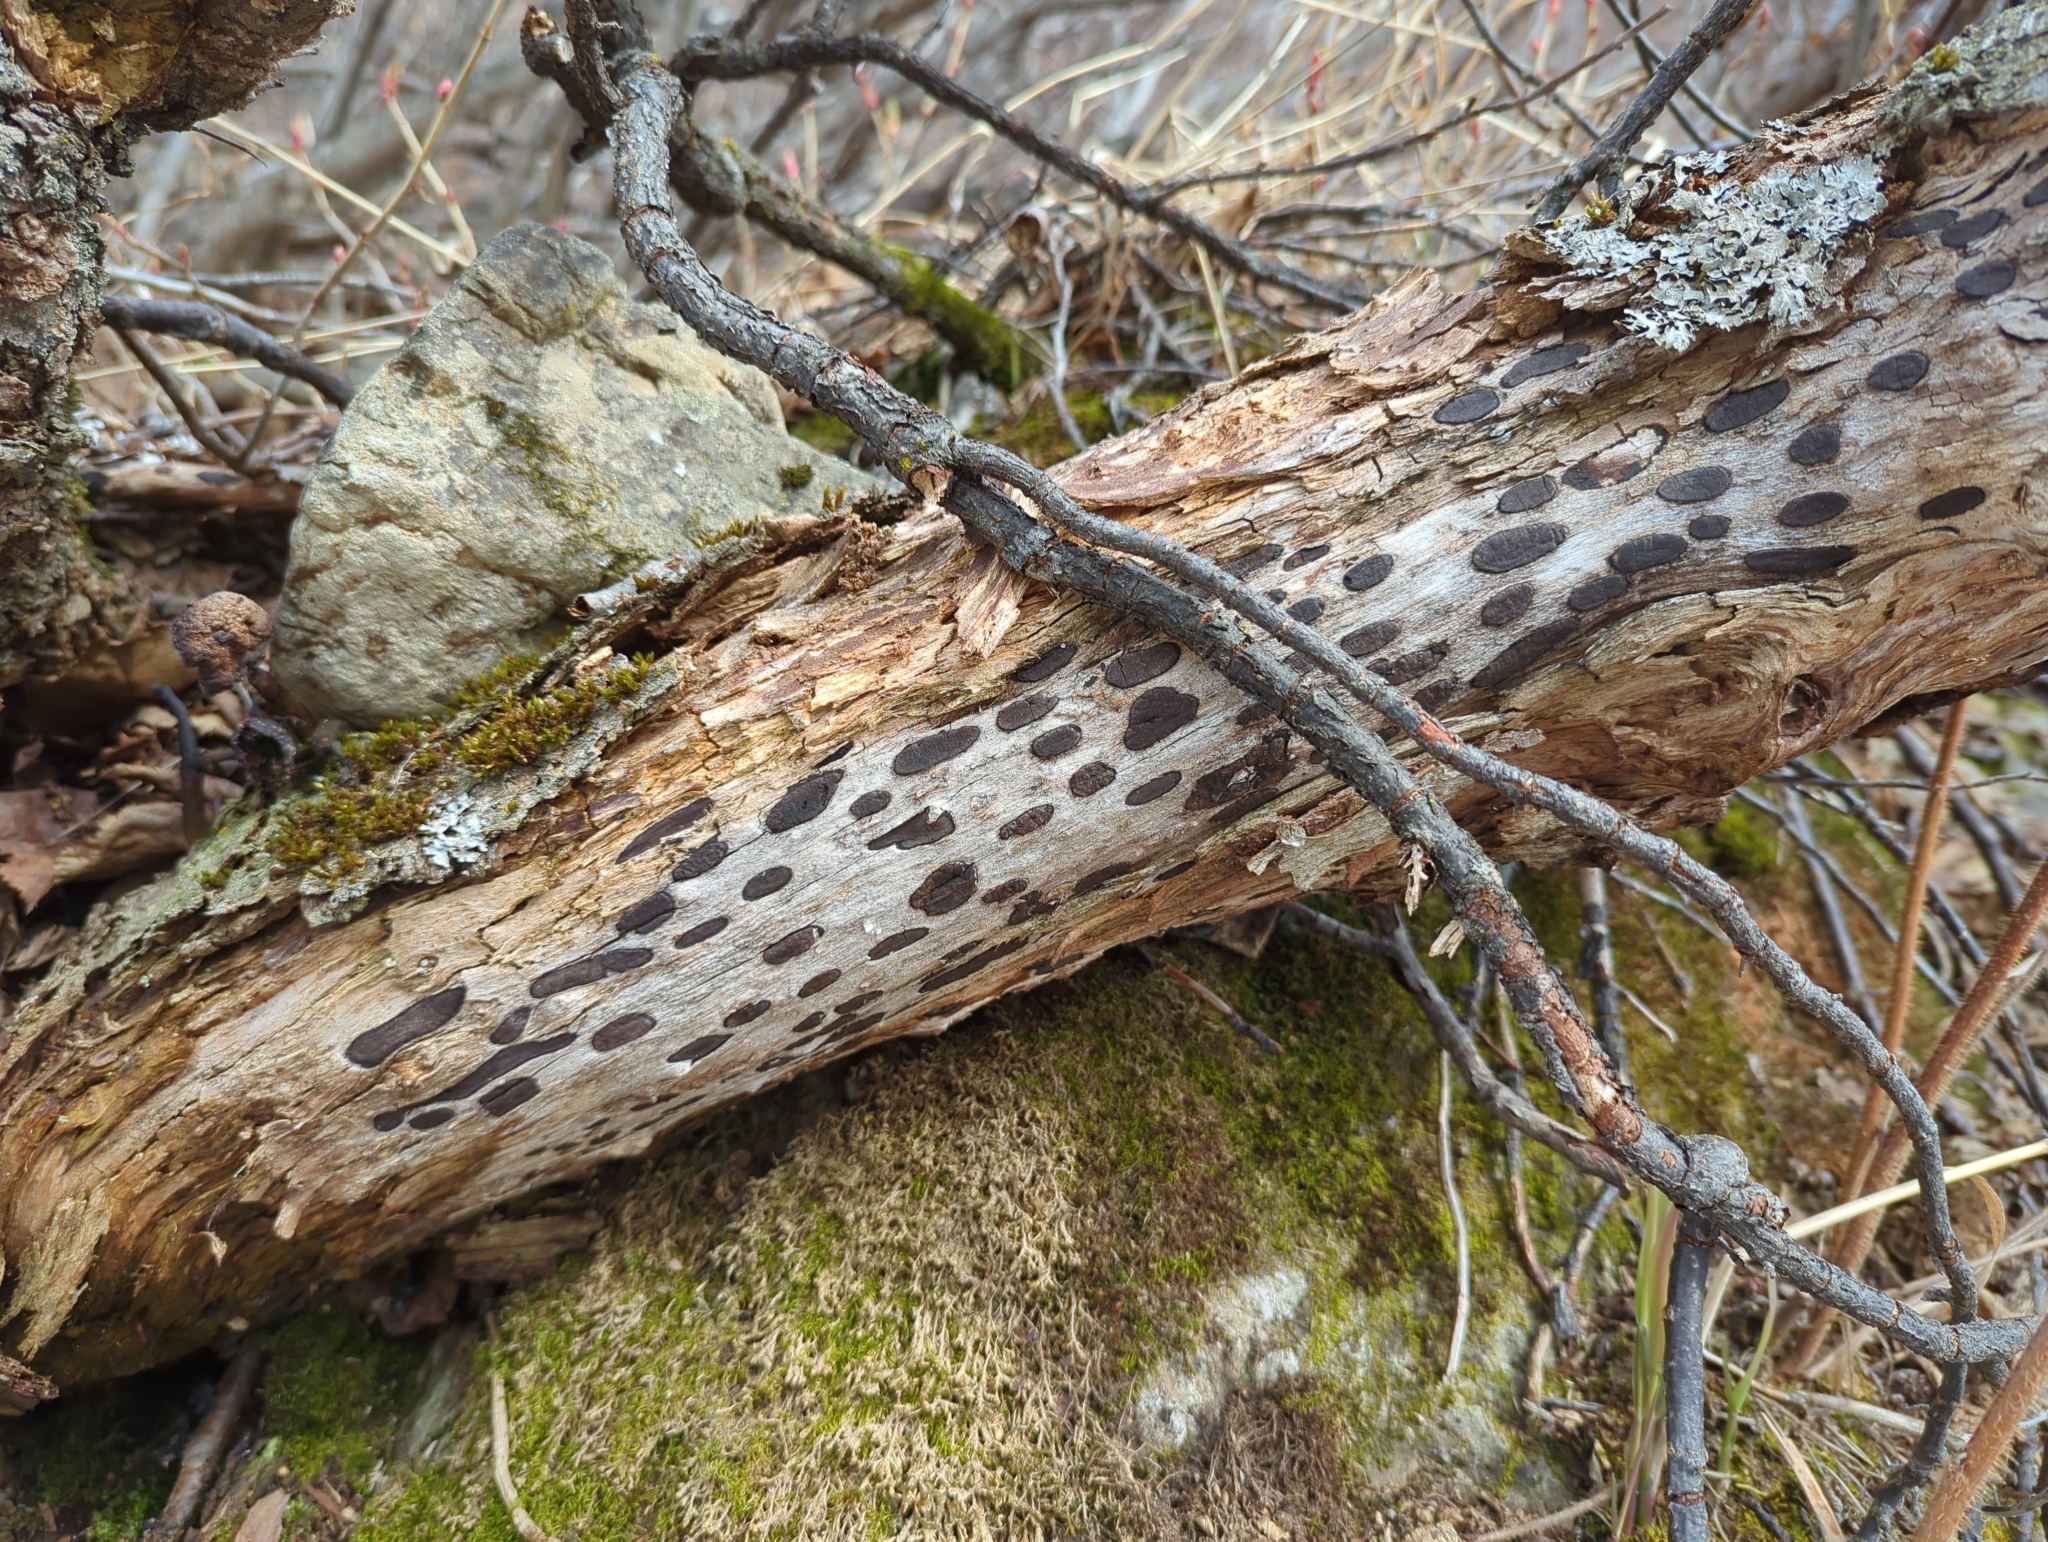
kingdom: Fungi
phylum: Ascomycota
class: Sordariomycetes
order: Xylariales
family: Graphostromataceae
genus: Biscogniauxia
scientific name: Biscogniauxia bartholomaei
